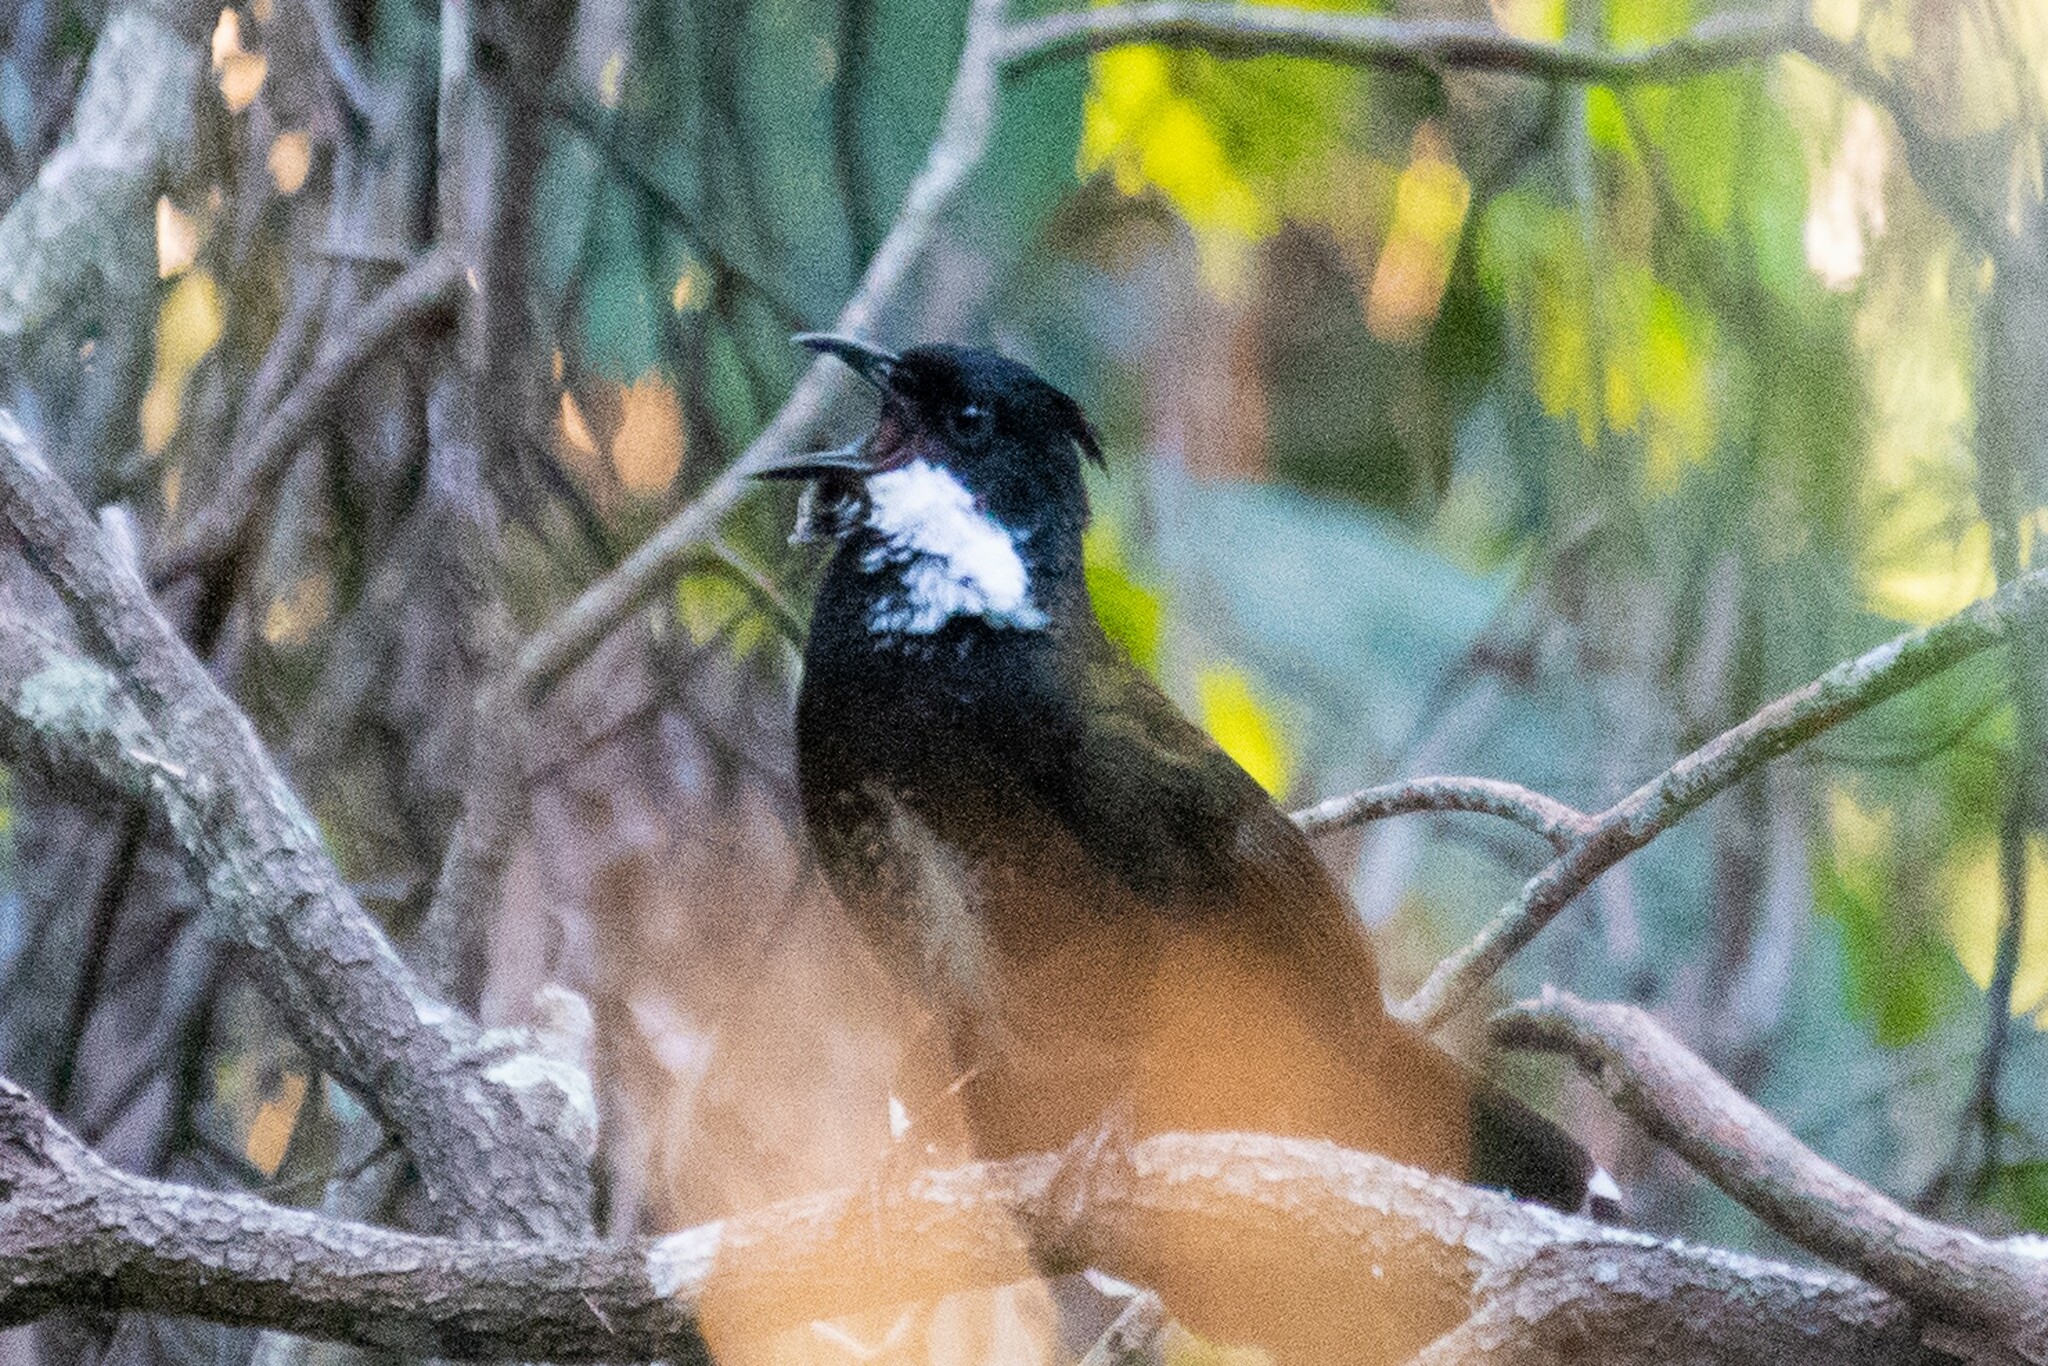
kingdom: Animalia
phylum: Chordata
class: Aves
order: Passeriformes
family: Psophodidae
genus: Psophodes
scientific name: Psophodes olivaceus
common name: Eastern whipbird
